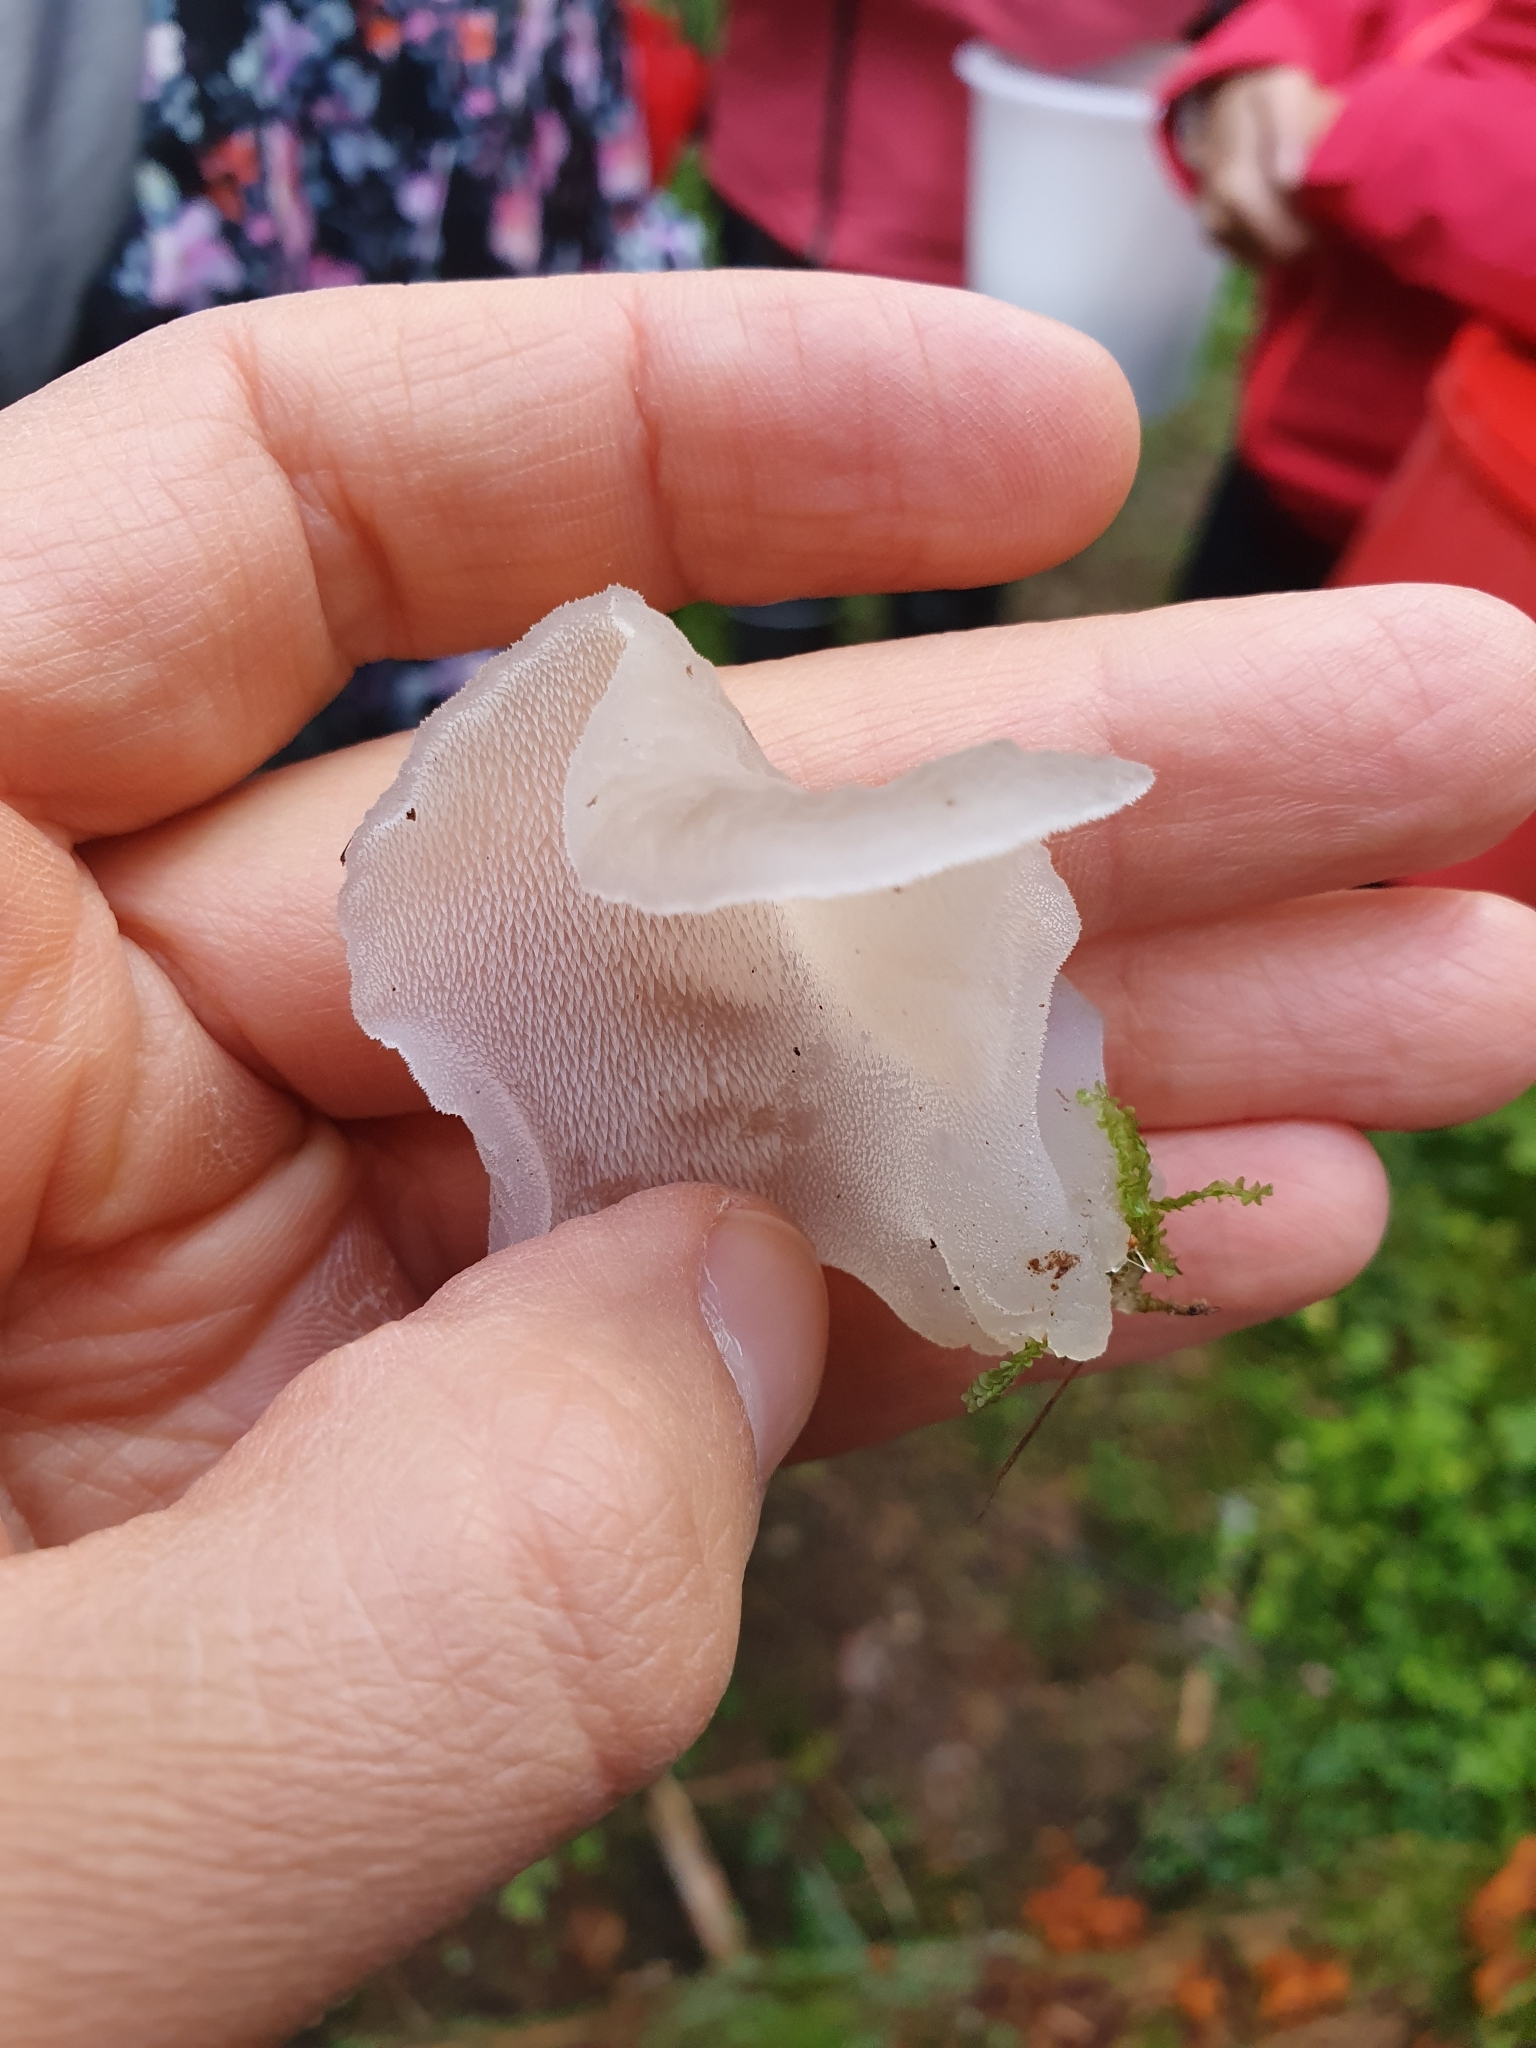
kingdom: Fungi
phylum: Basidiomycota
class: Agaricomycetes
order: Auriculariales
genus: Pseudohydnum
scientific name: Pseudohydnum gelatinosum
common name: Jelly tongue
